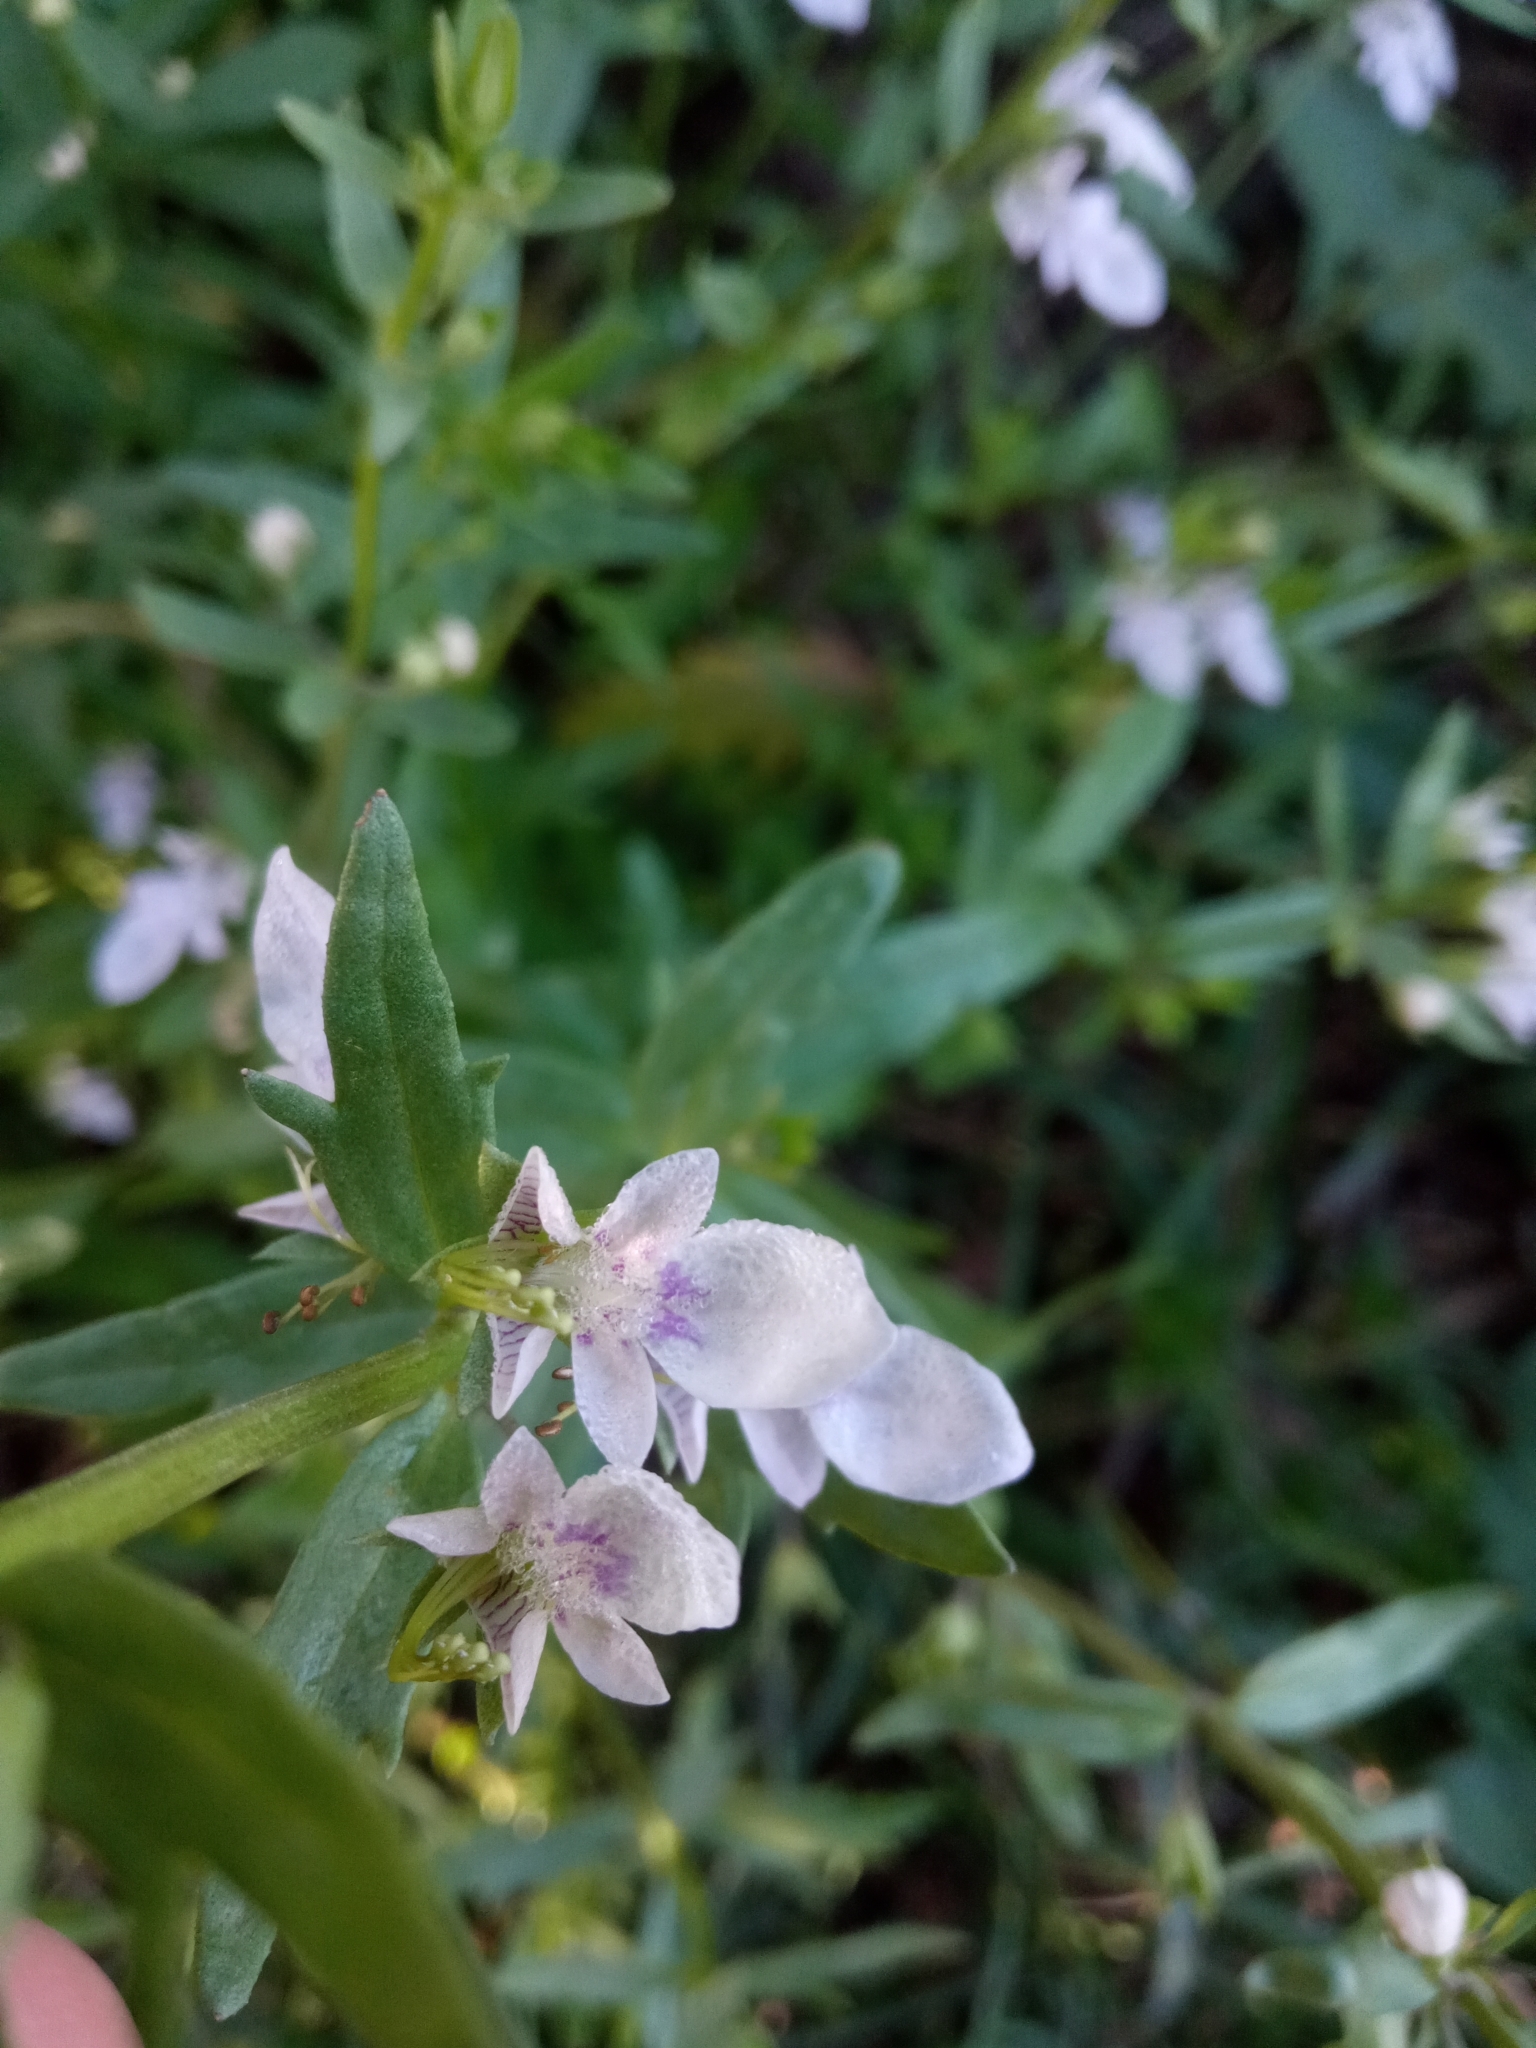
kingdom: Plantae
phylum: Tracheophyta
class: Magnoliopsida
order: Lamiales
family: Lamiaceae
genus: Teucrium
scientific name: Teucrium cubense
